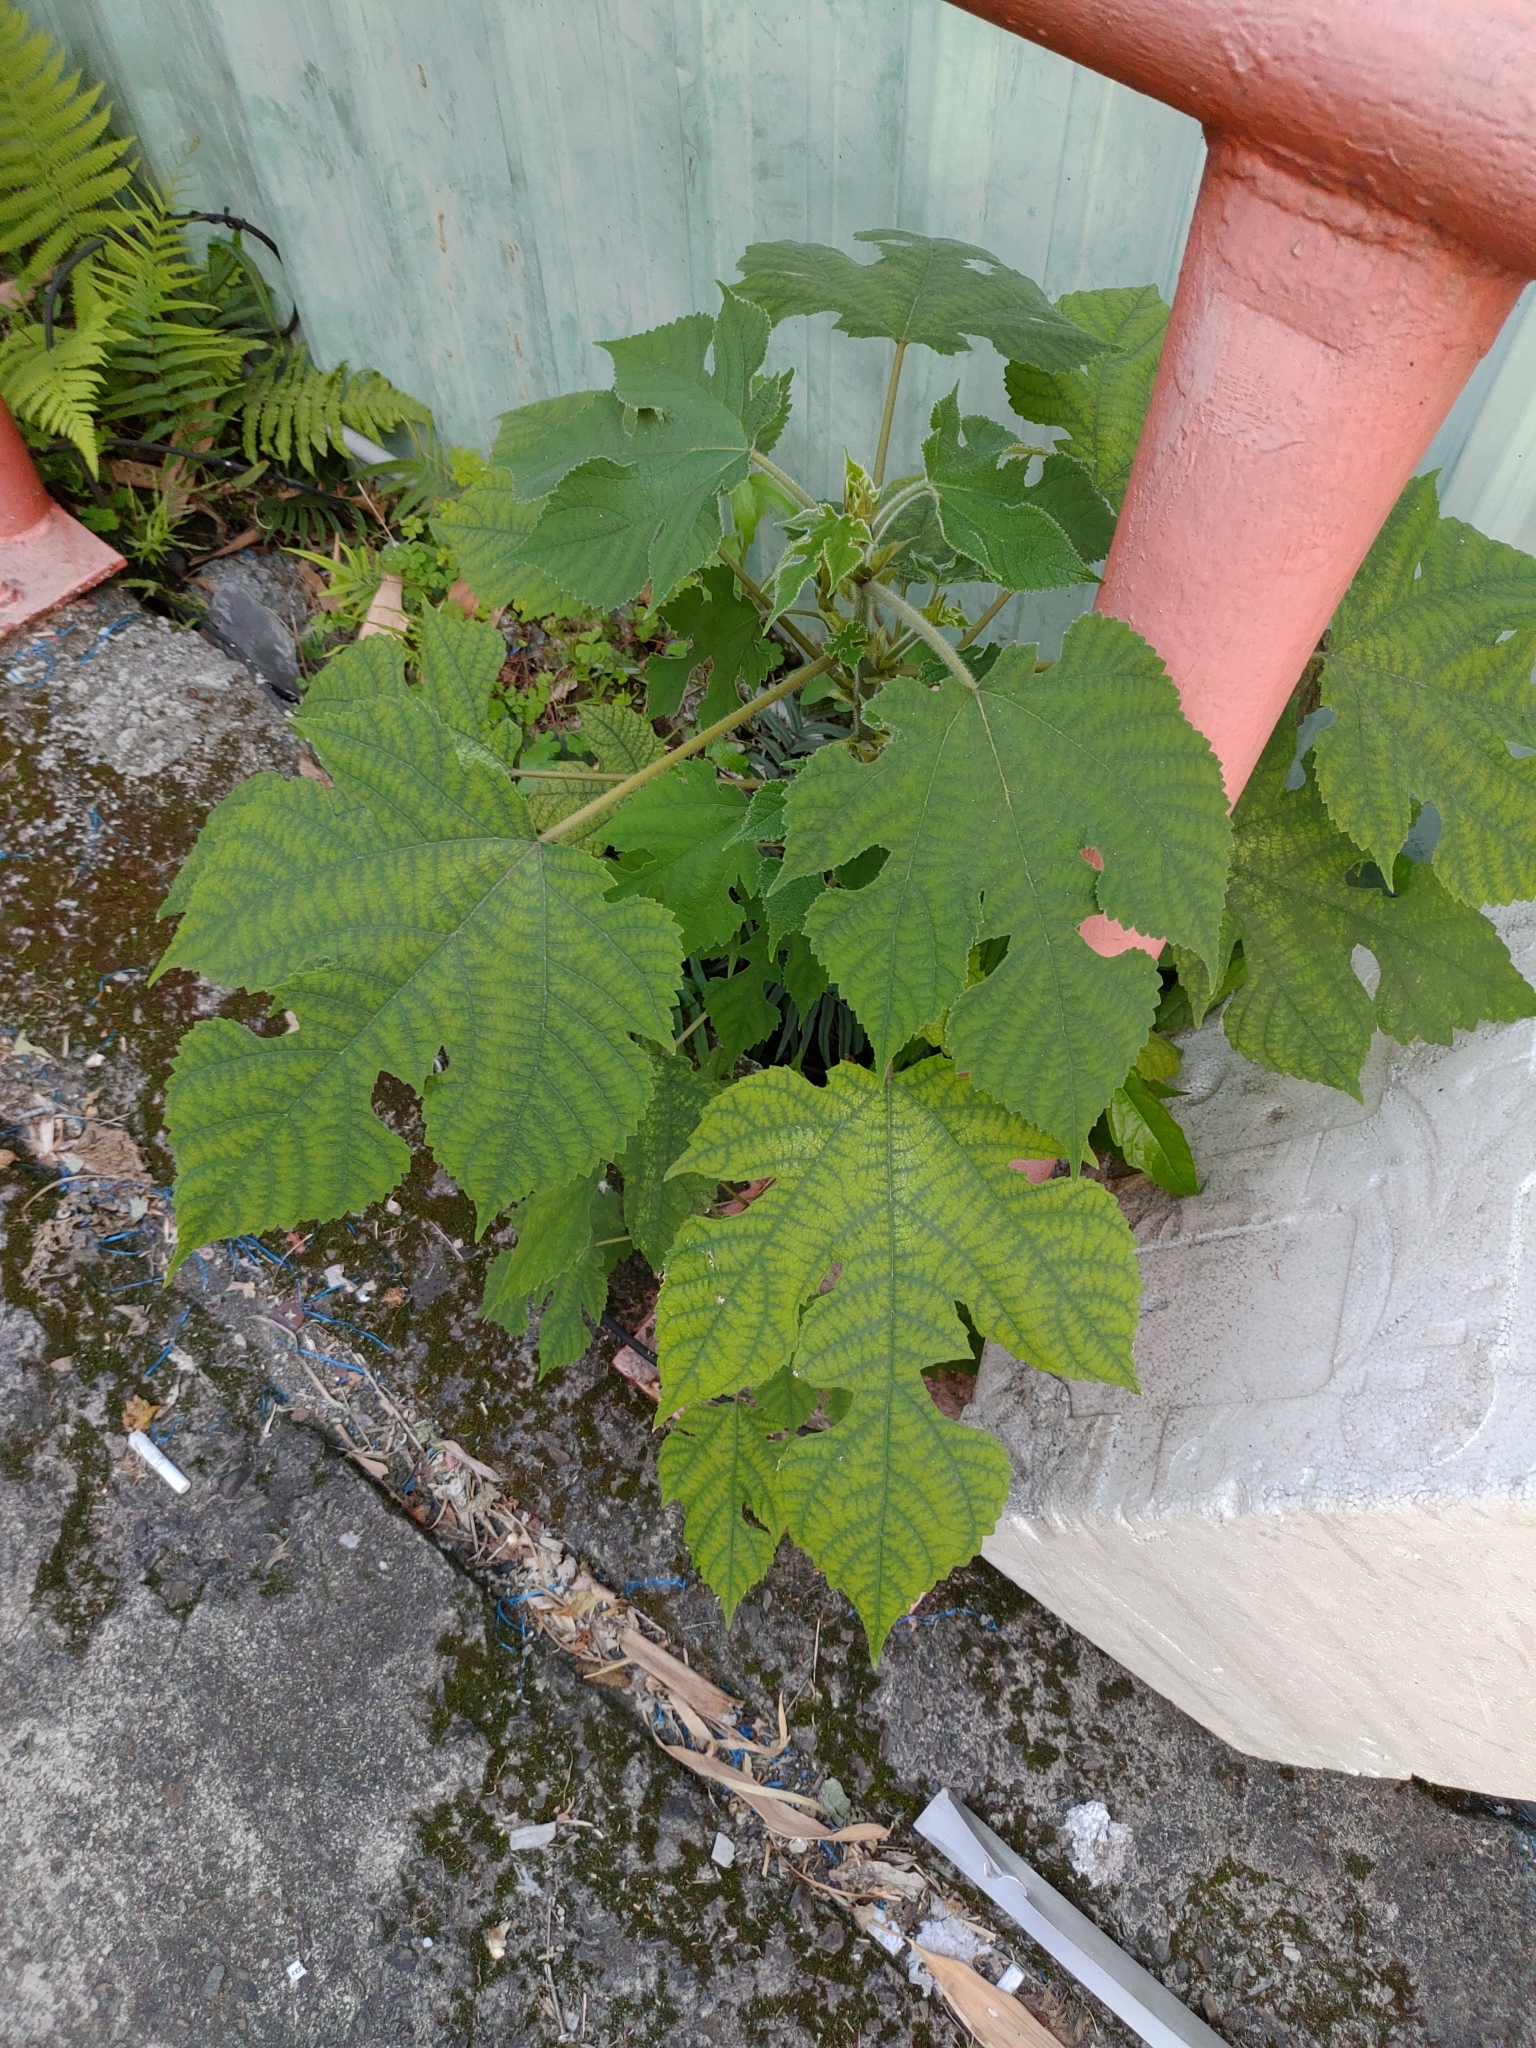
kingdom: Plantae
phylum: Tracheophyta
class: Magnoliopsida
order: Rosales
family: Moraceae
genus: Broussonetia
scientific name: Broussonetia papyrifera
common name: Paper mulberry
